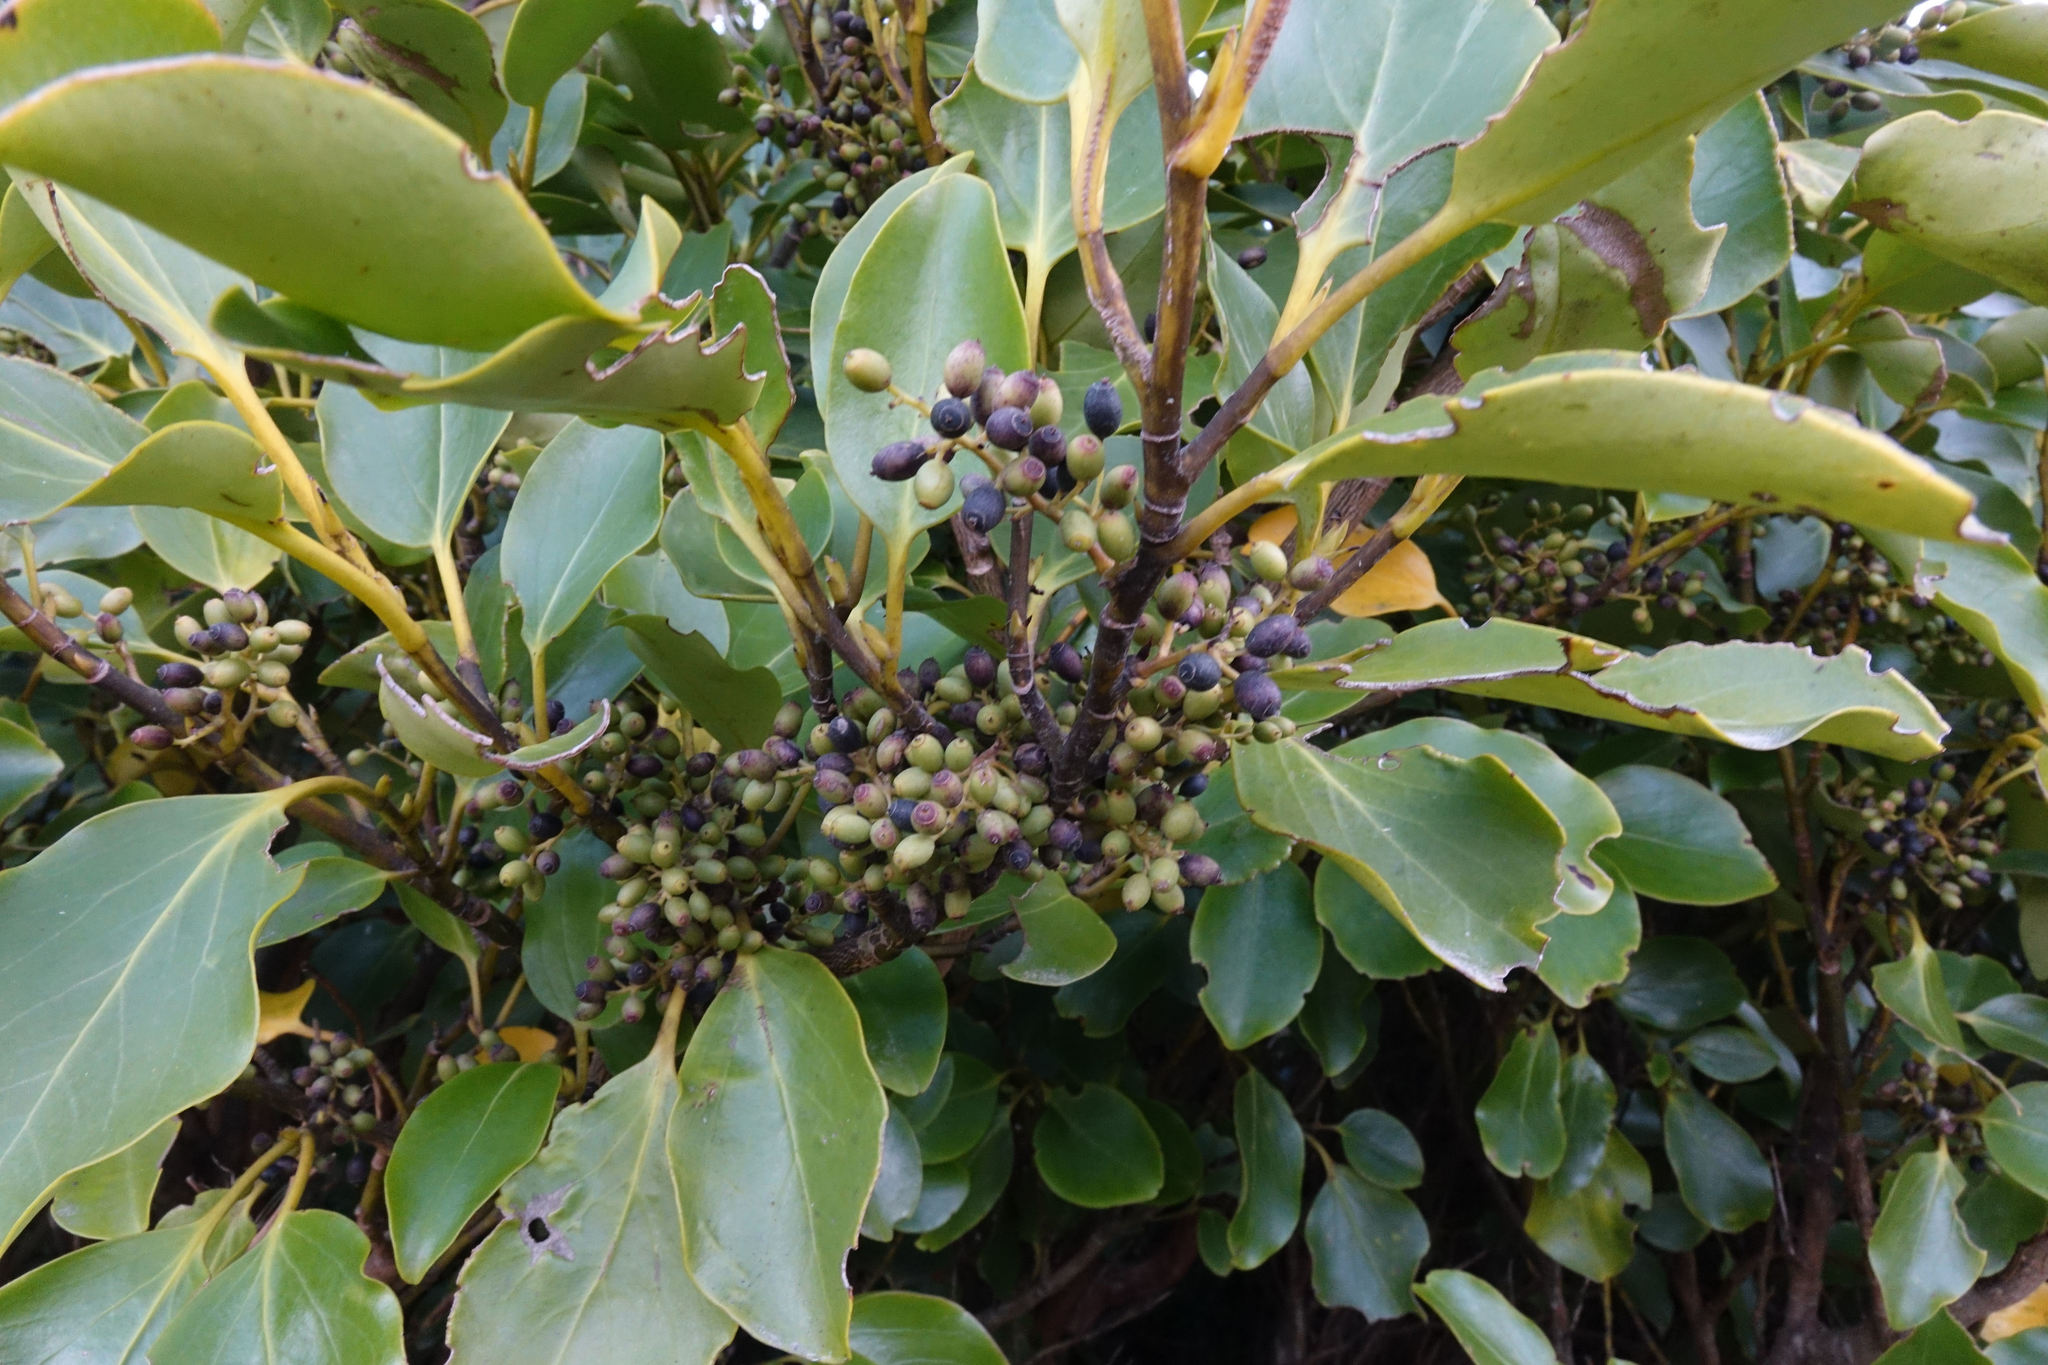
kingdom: Plantae
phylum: Tracheophyta
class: Magnoliopsida
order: Apiales
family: Griseliniaceae
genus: Griselinia
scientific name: Griselinia littoralis
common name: New zealand broadleaf
